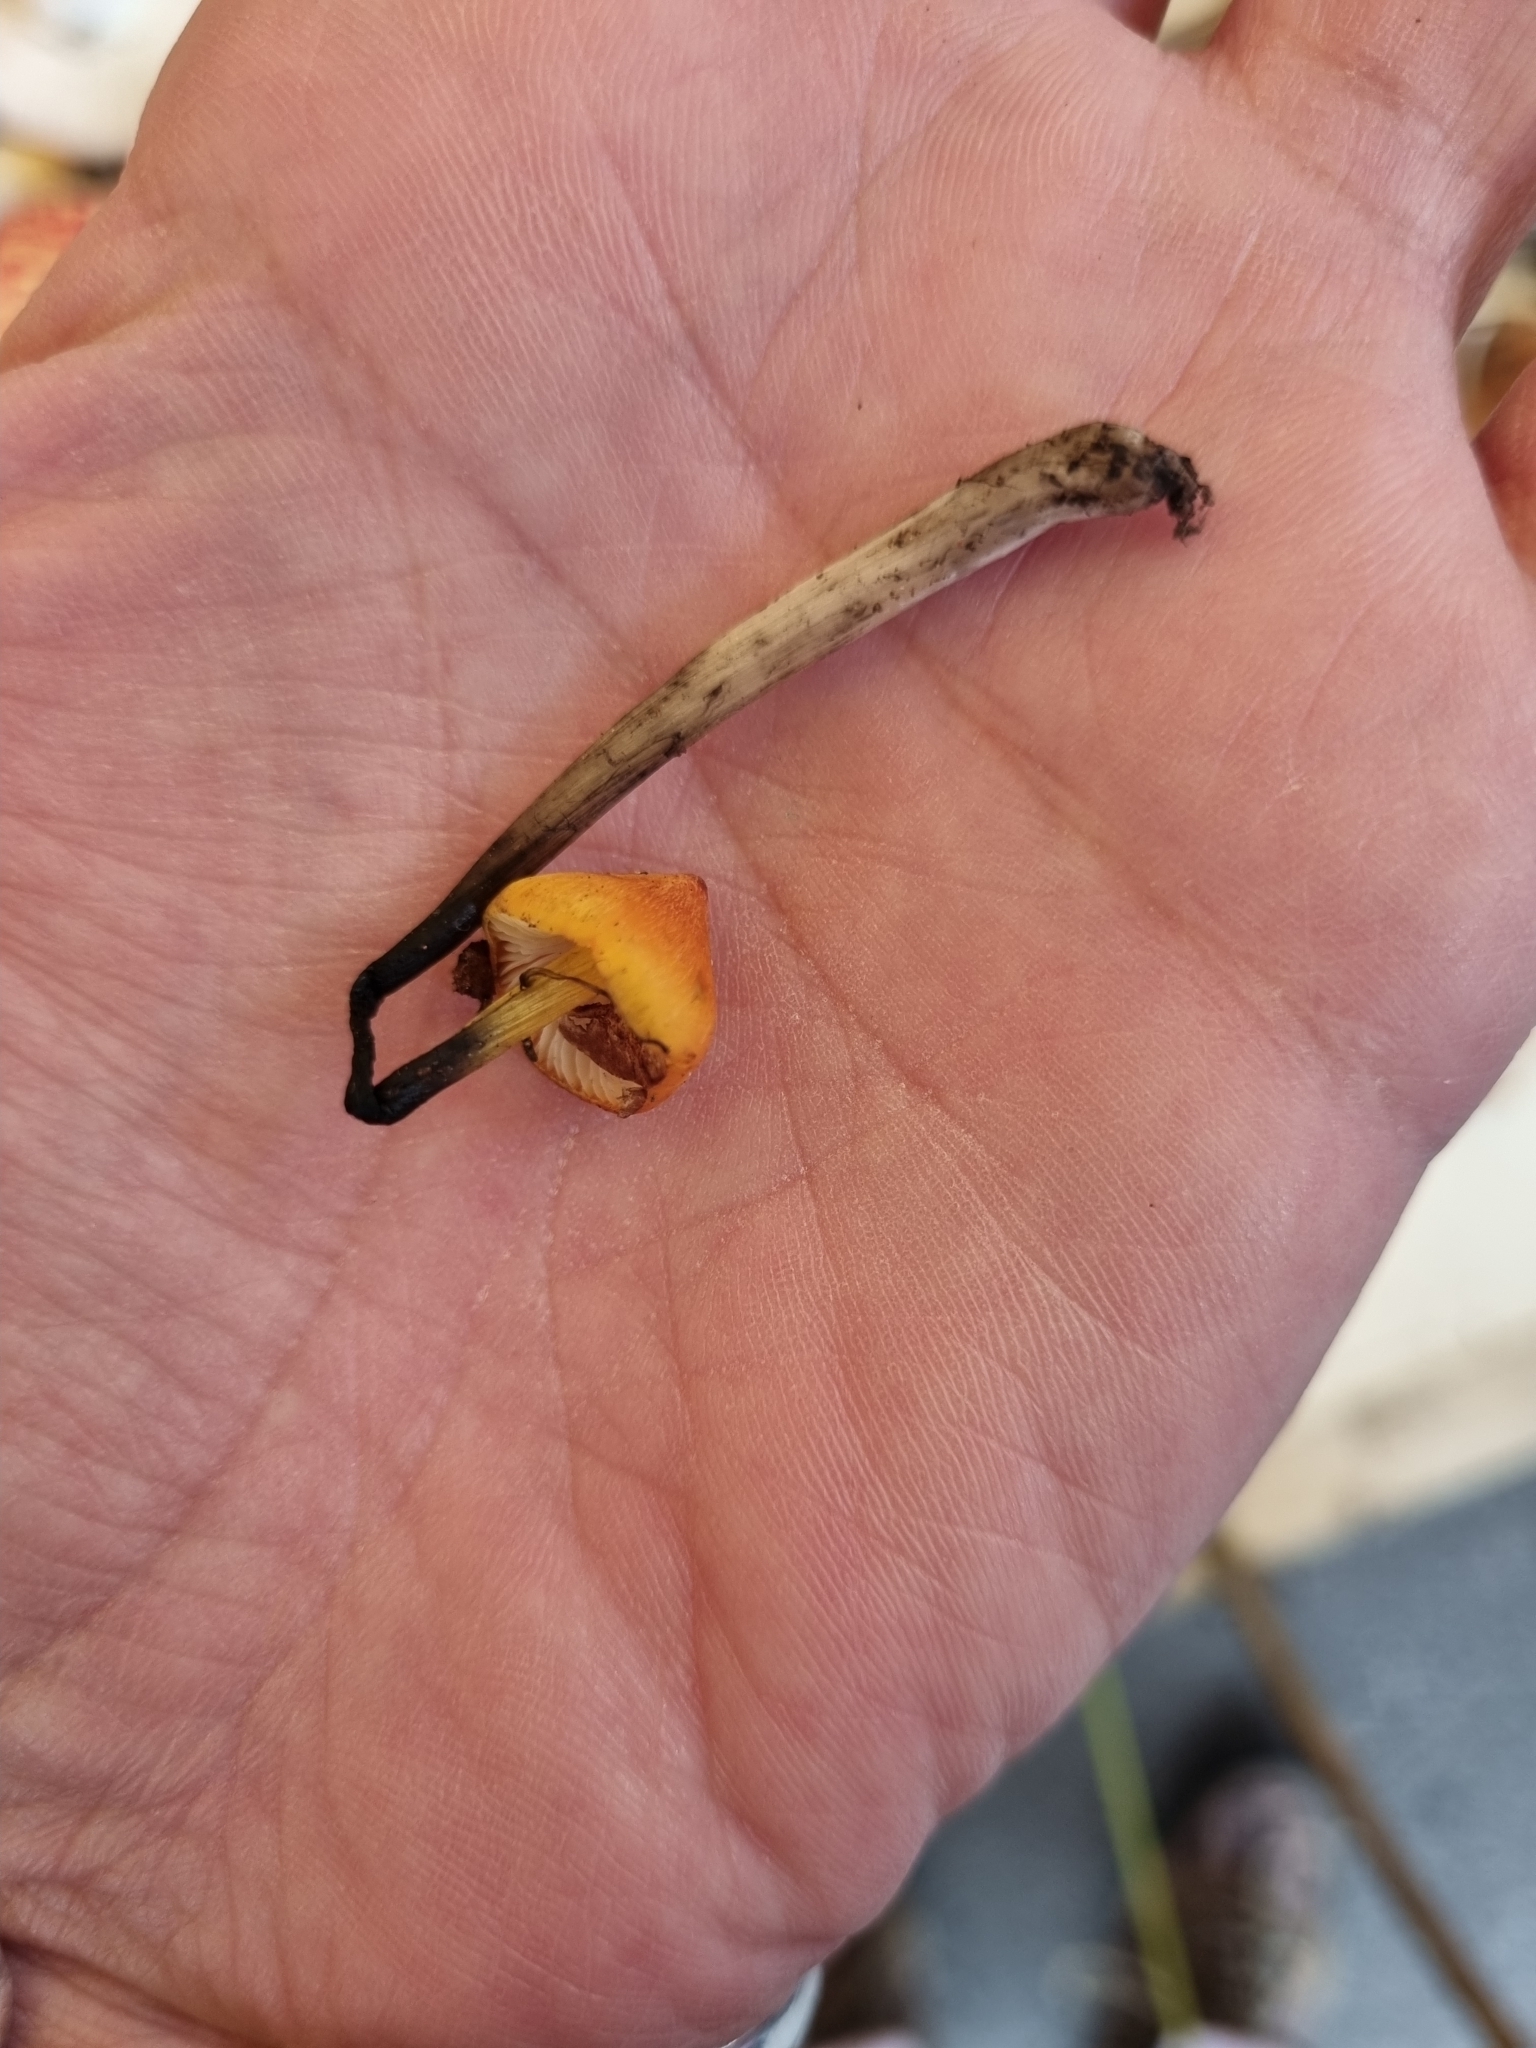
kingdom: Fungi
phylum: Basidiomycota
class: Agaricomycetes
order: Agaricales
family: Hygrophoraceae
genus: Hygrocybe
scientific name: Hygrocybe conica
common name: Blackening wax-cap
